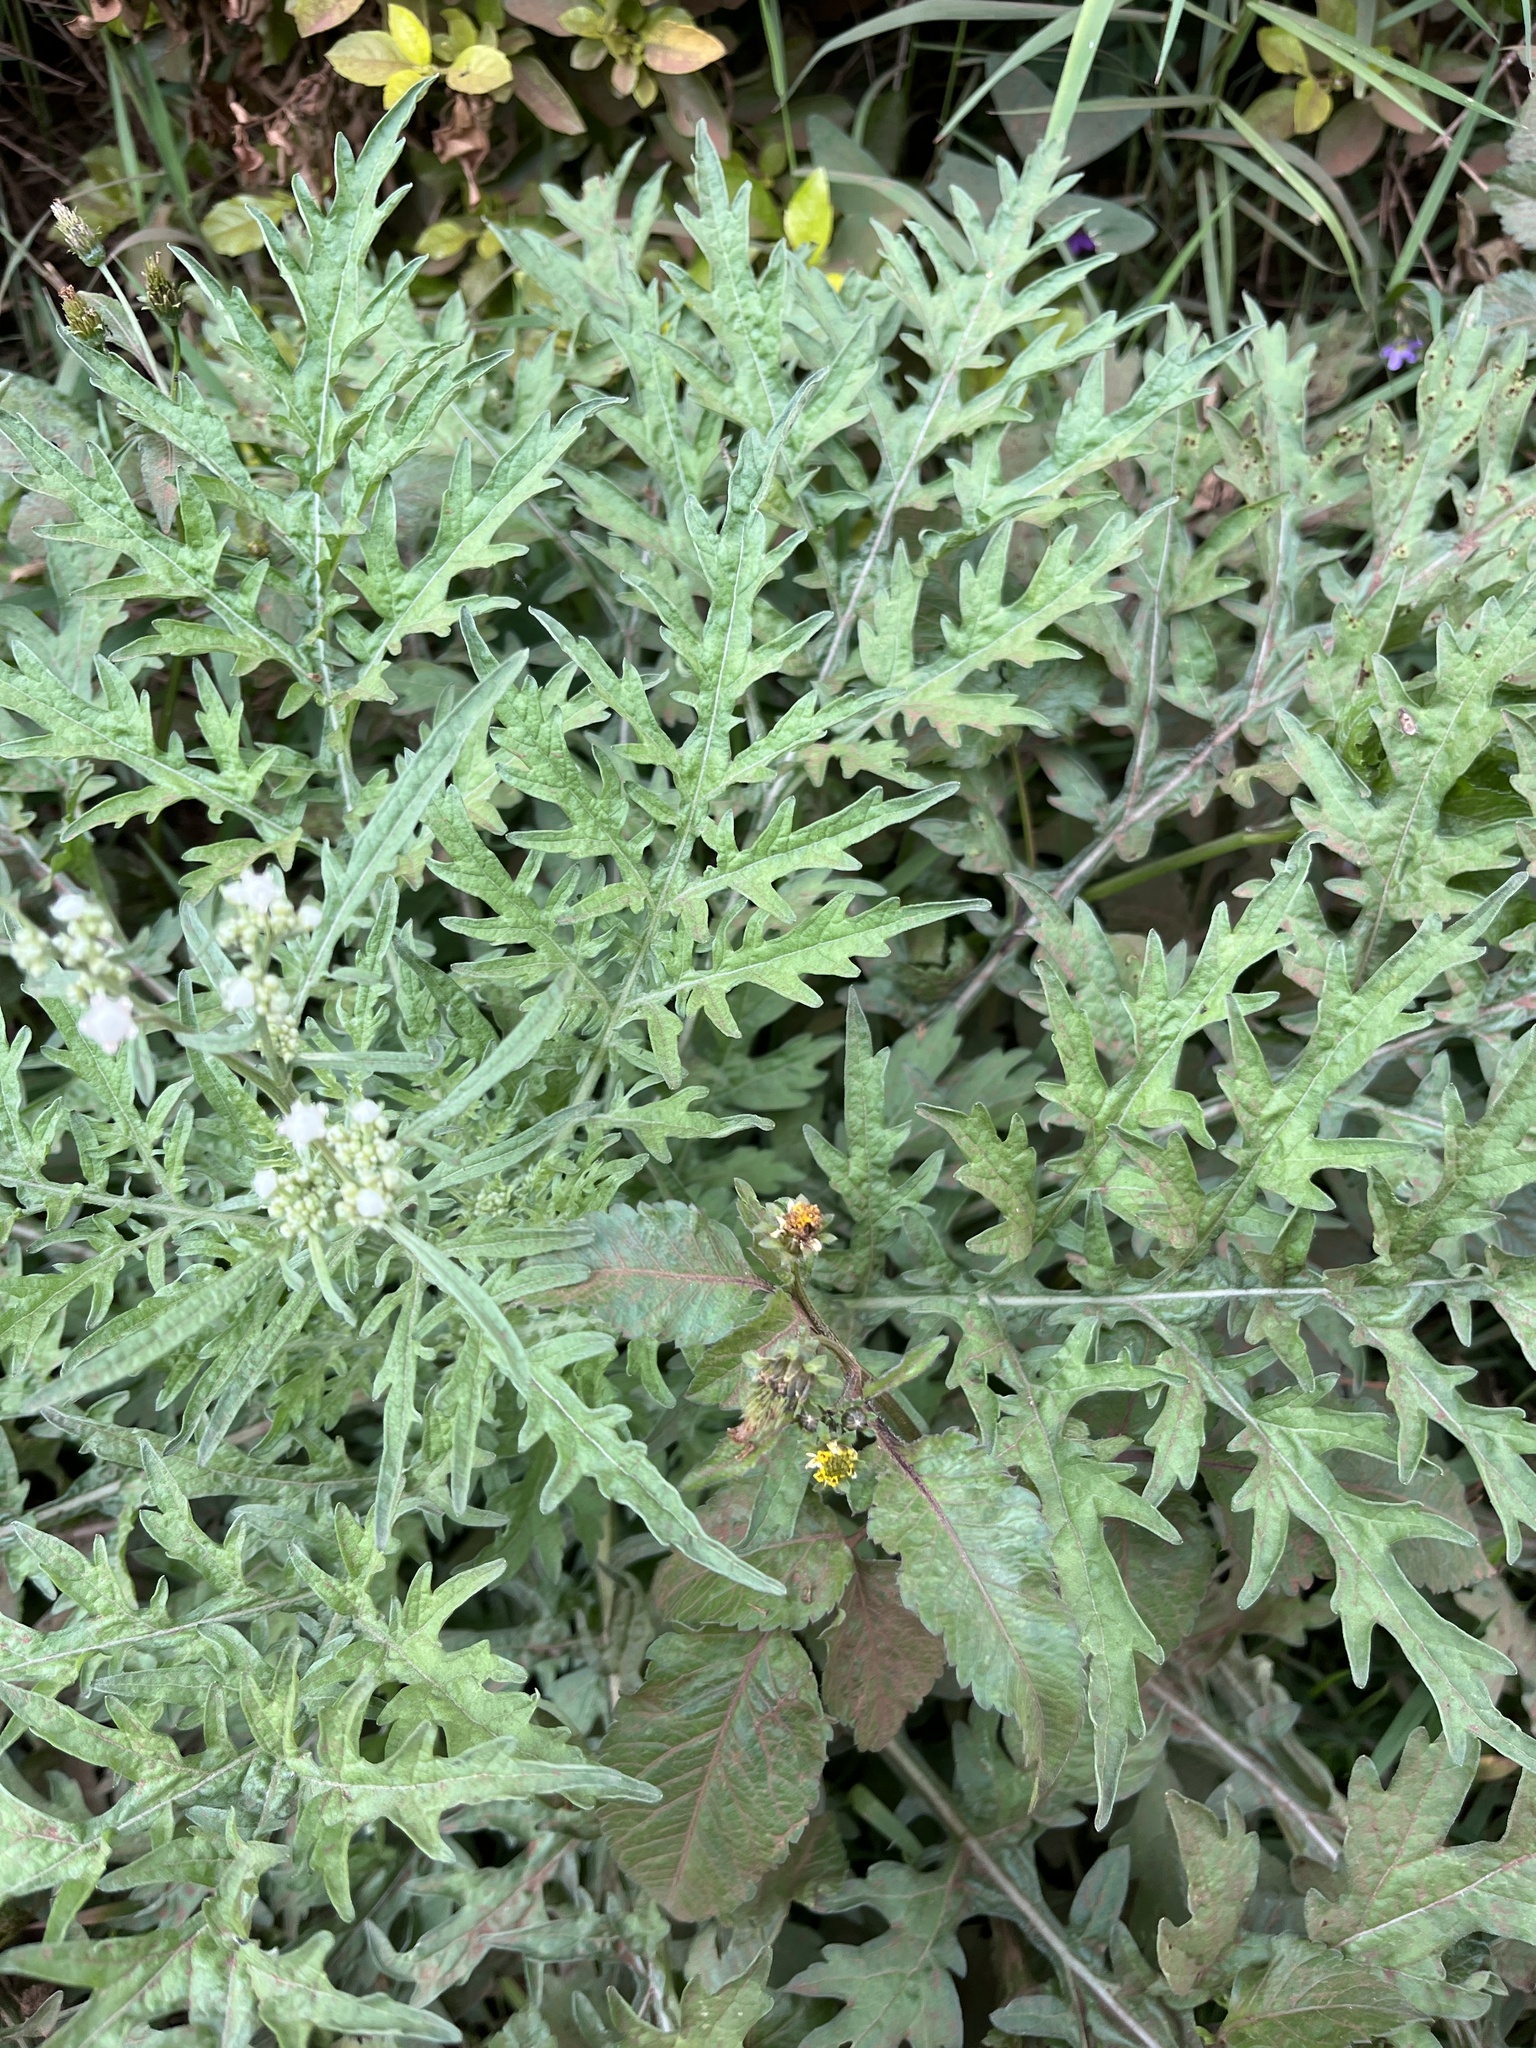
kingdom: Plantae
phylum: Tracheophyta
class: Magnoliopsida
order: Asterales
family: Asteraceae
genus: Parthenium
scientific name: Parthenium hysterophorus
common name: Santa maria feverfew
